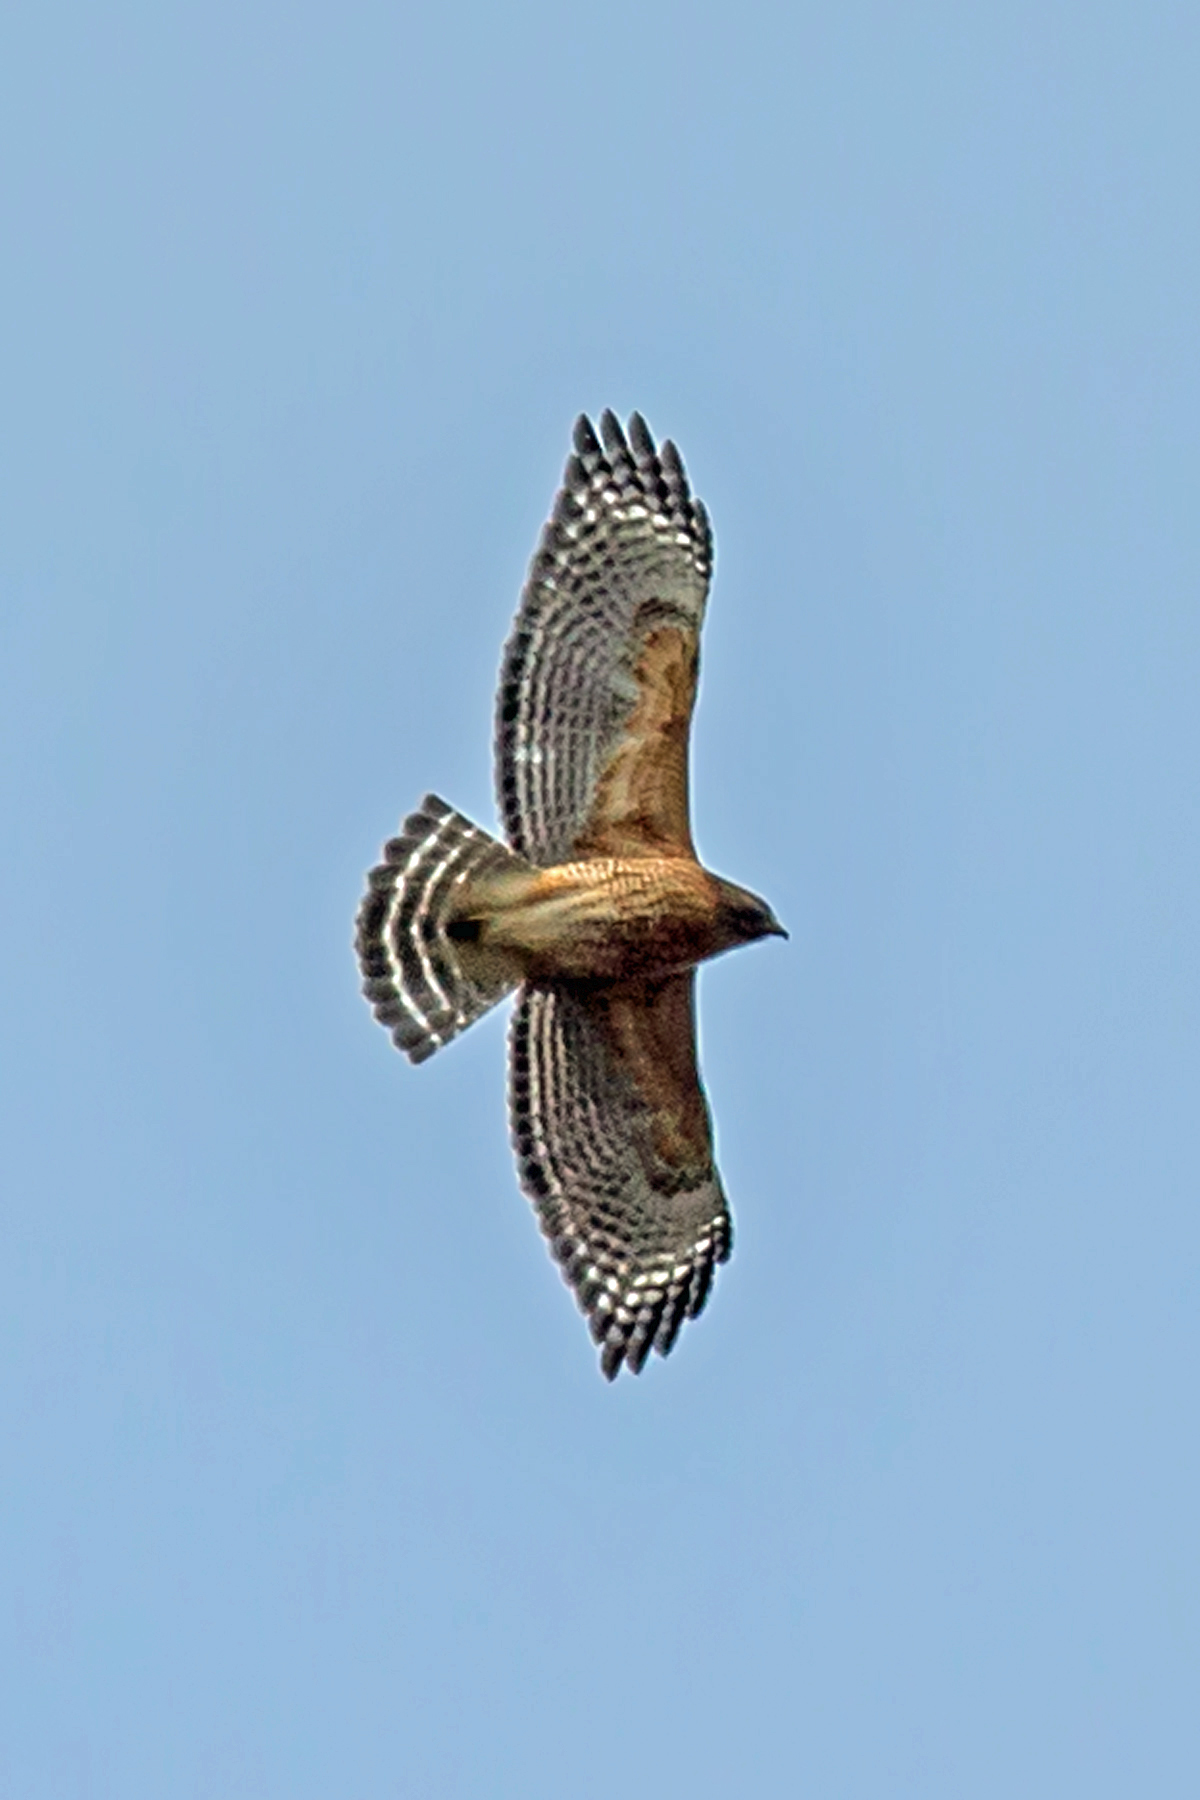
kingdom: Animalia
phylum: Chordata
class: Aves
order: Accipitriformes
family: Accipitridae
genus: Buteo
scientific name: Buteo lineatus
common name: Red-shouldered hawk
